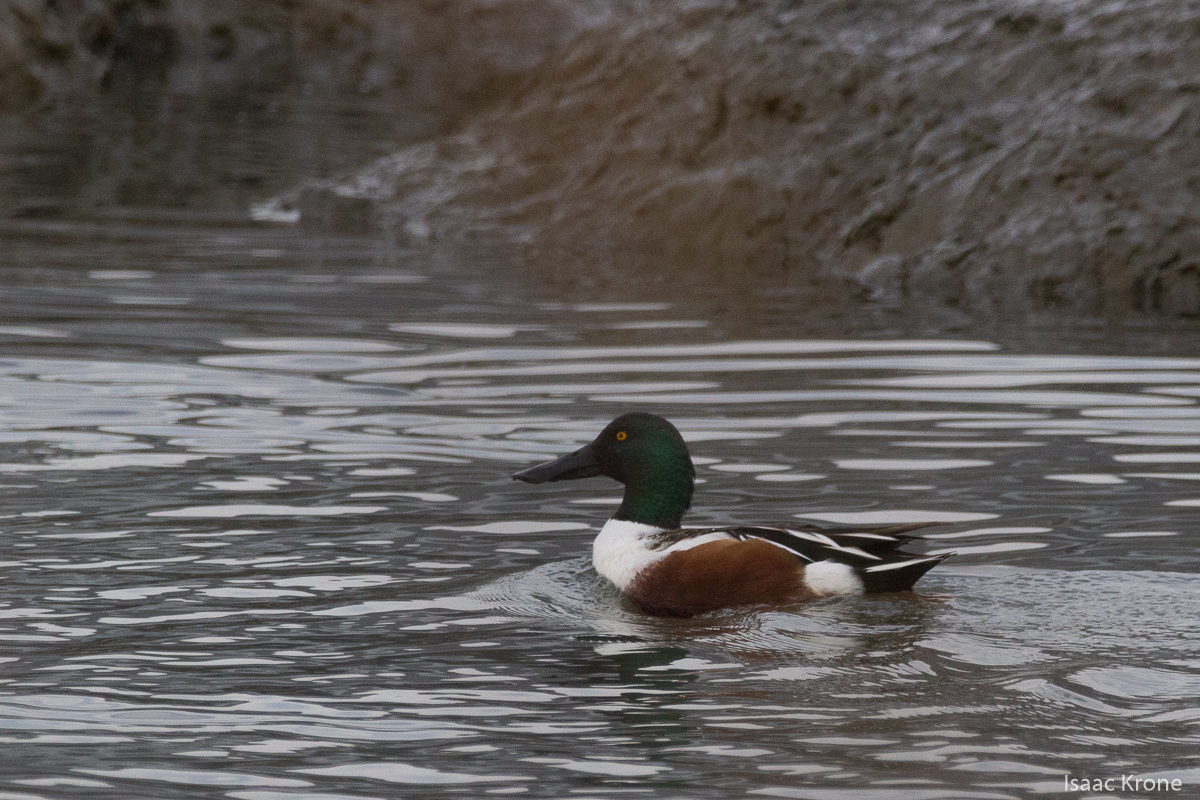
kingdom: Animalia
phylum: Chordata
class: Aves
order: Anseriformes
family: Anatidae
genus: Spatula
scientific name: Spatula clypeata
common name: Northern shoveler
